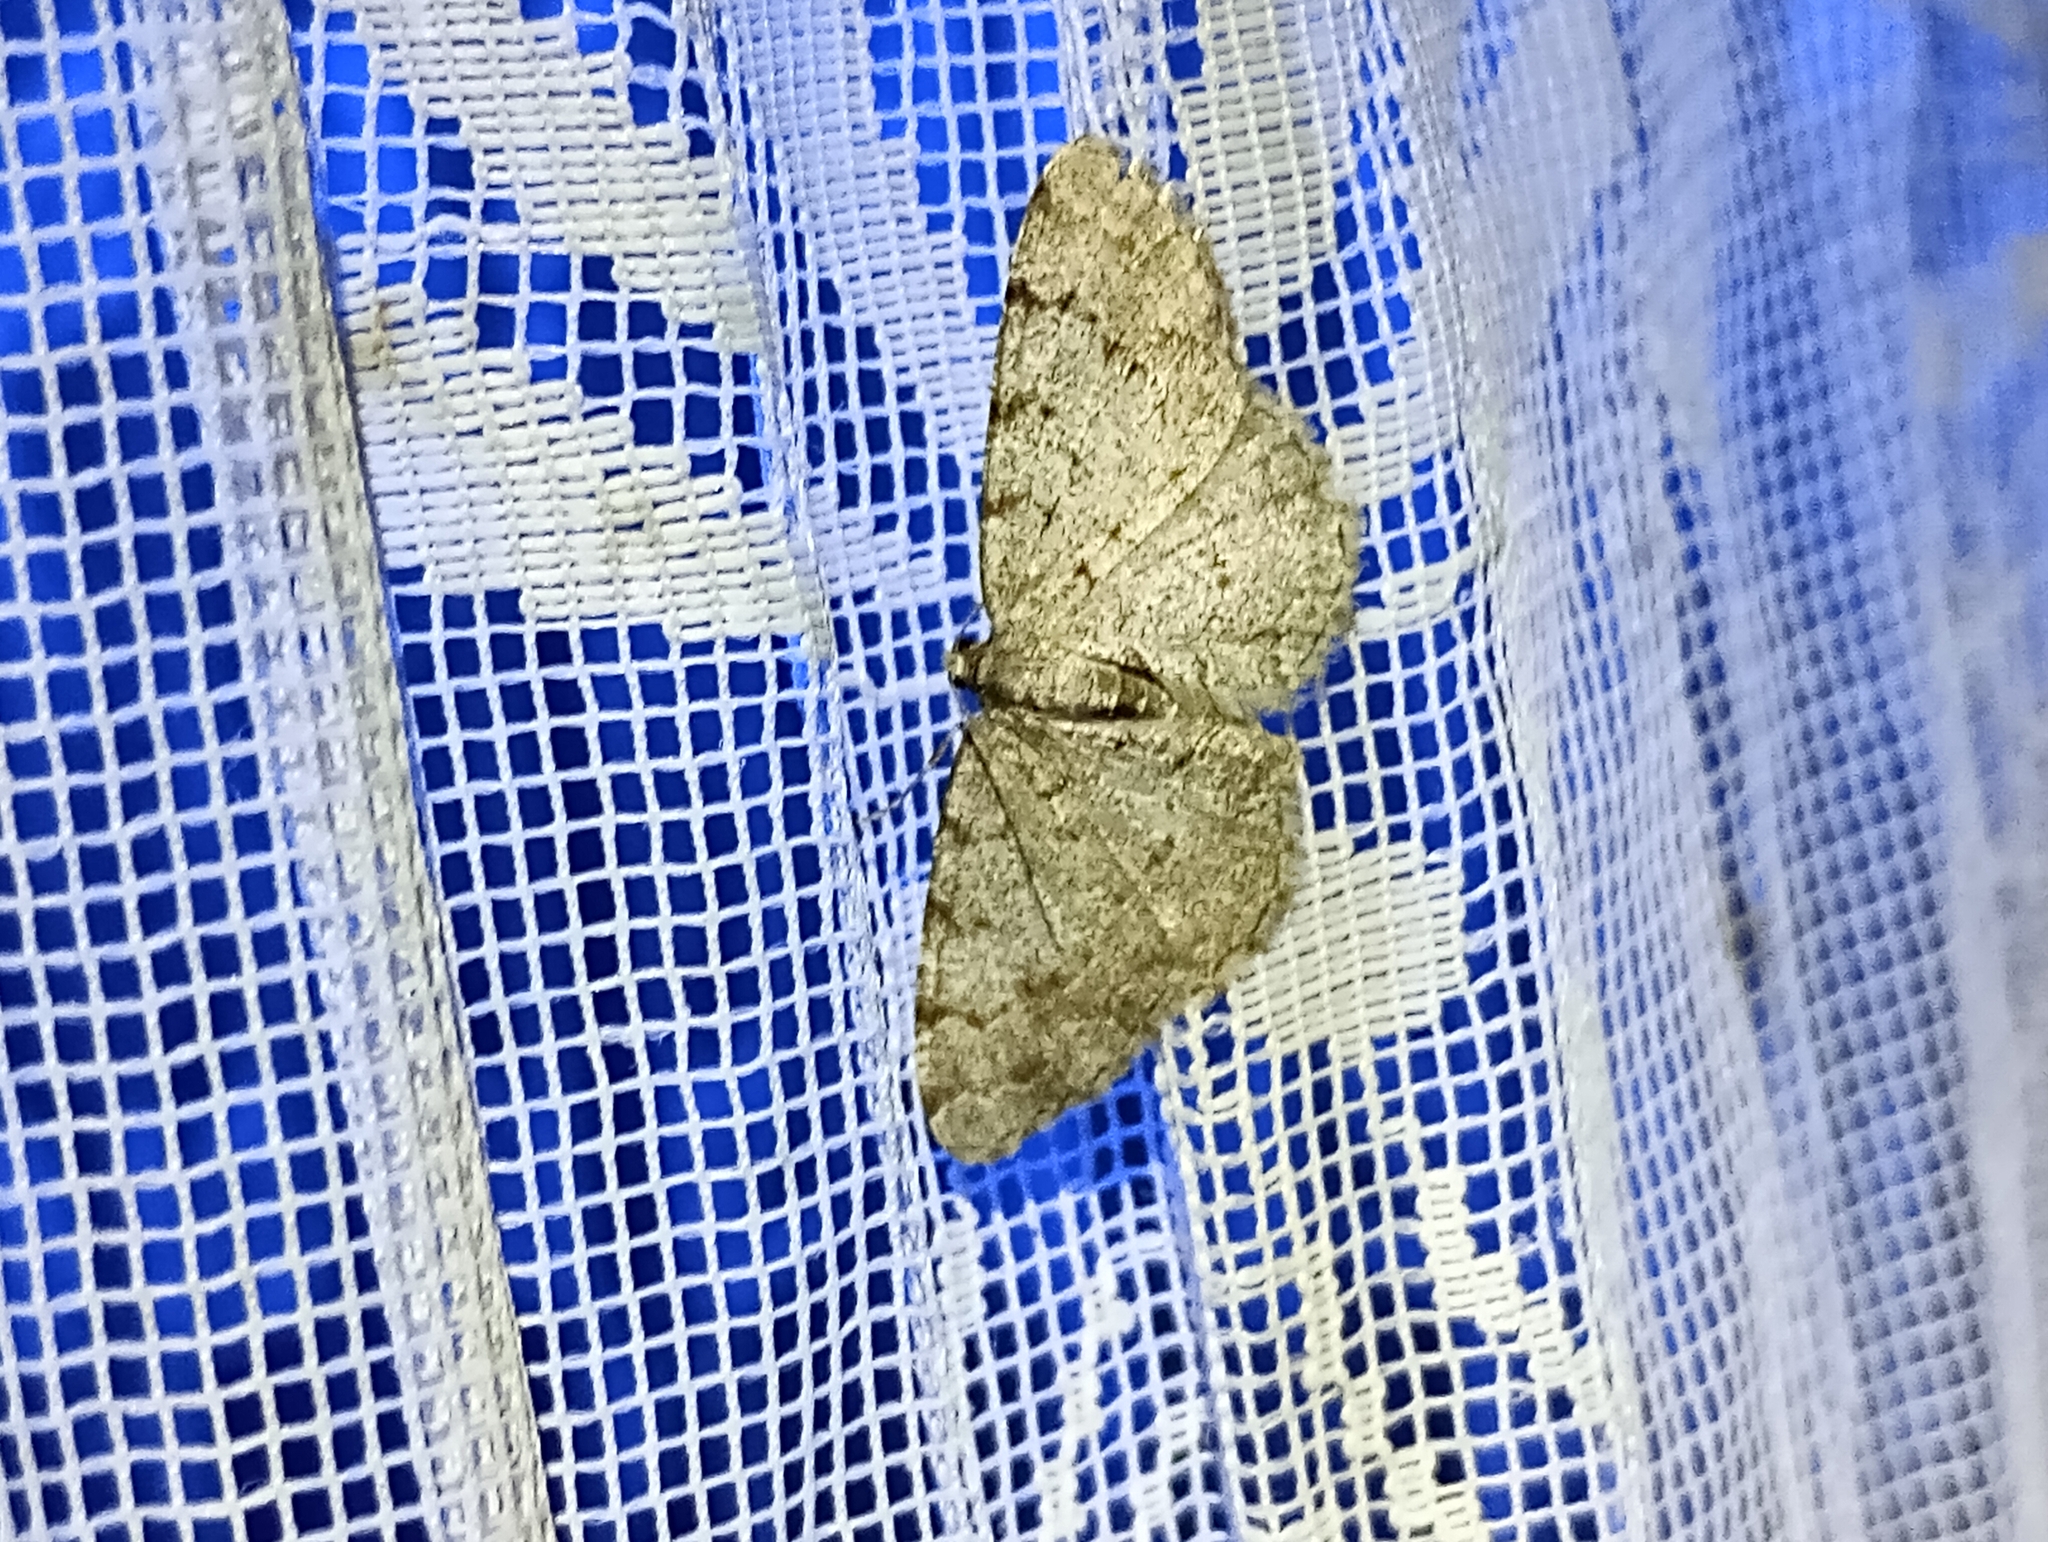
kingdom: Animalia
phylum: Arthropoda
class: Insecta
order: Lepidoptera
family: Geometridae
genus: Aethalura
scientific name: Aethalura punctulata
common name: Grey birch
